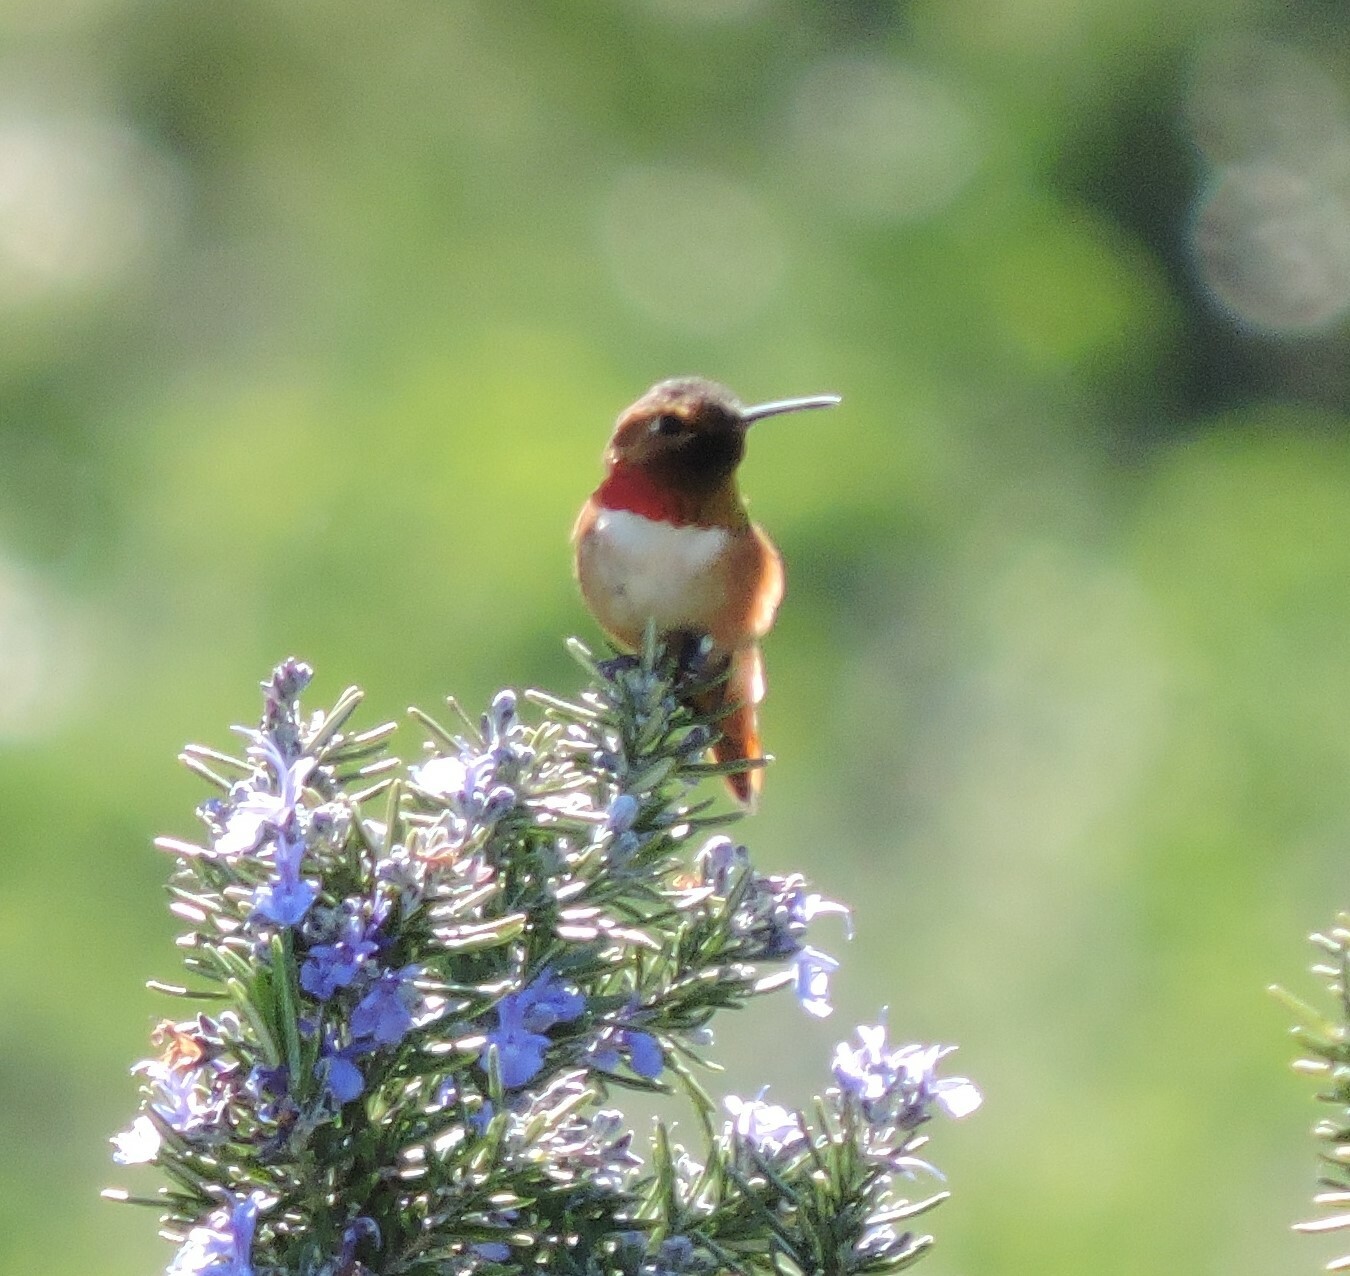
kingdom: Animalia
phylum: Chordata
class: Aves
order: Apodiformes
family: Trochilidae
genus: Selasphorus
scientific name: Selasphorus
